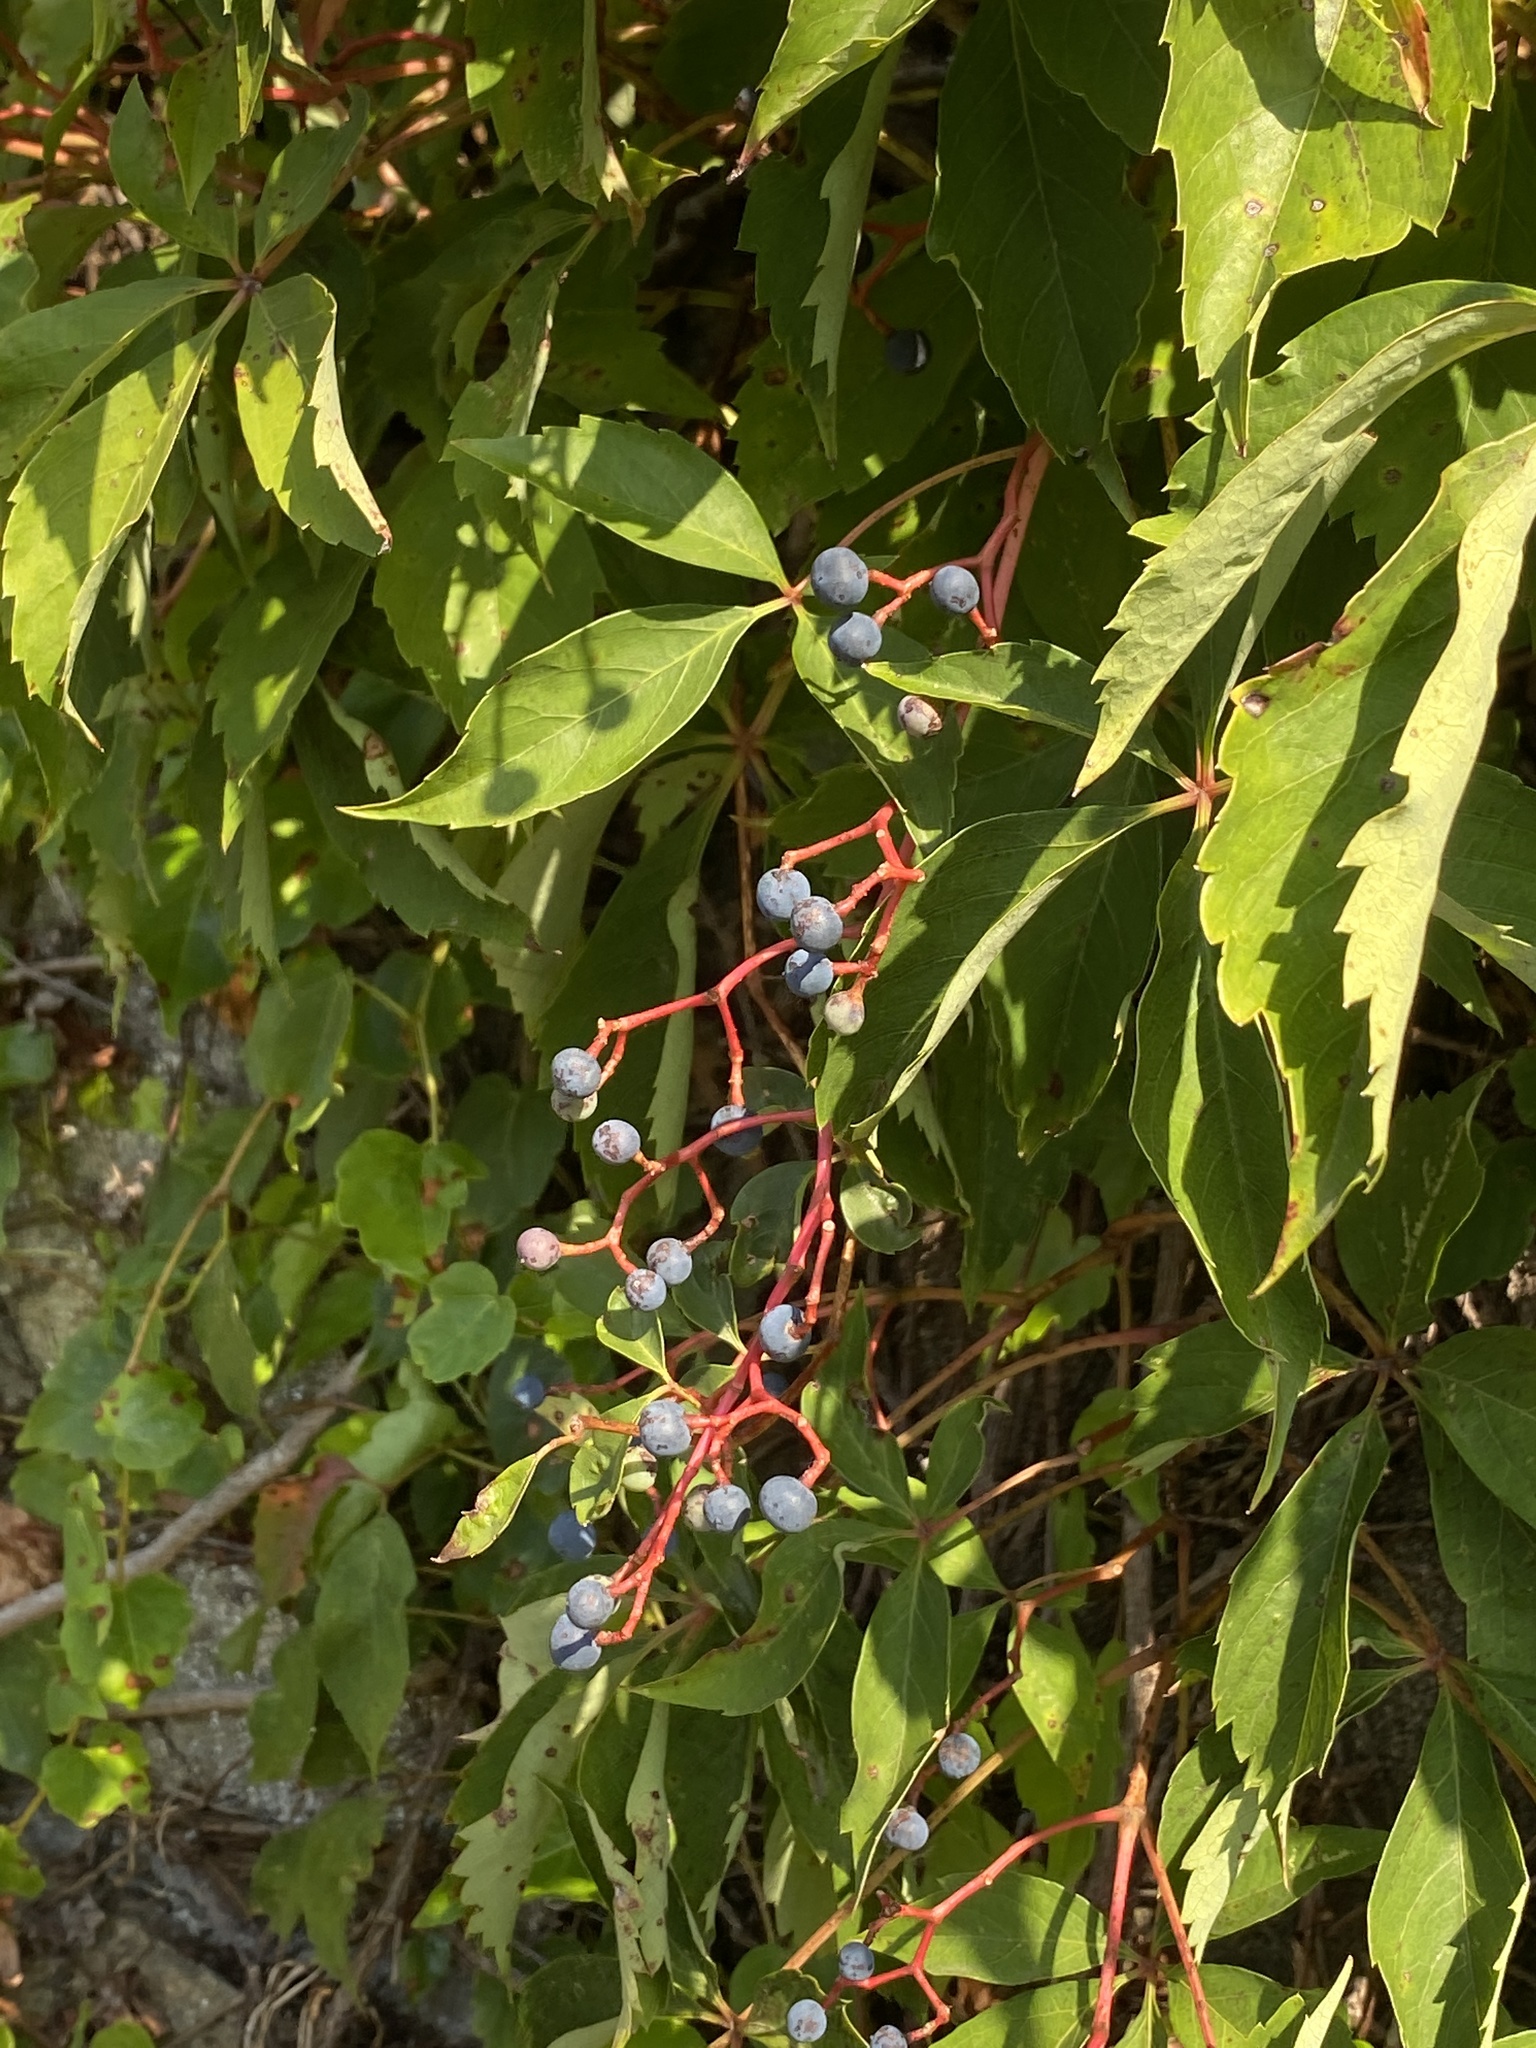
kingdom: Plantae
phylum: Tracheophyta
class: Magnoliopsida
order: Vitales
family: Vitaceae
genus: Parthenocissus
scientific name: Parthenocissus quinquefolia
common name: Virginia-creeper
